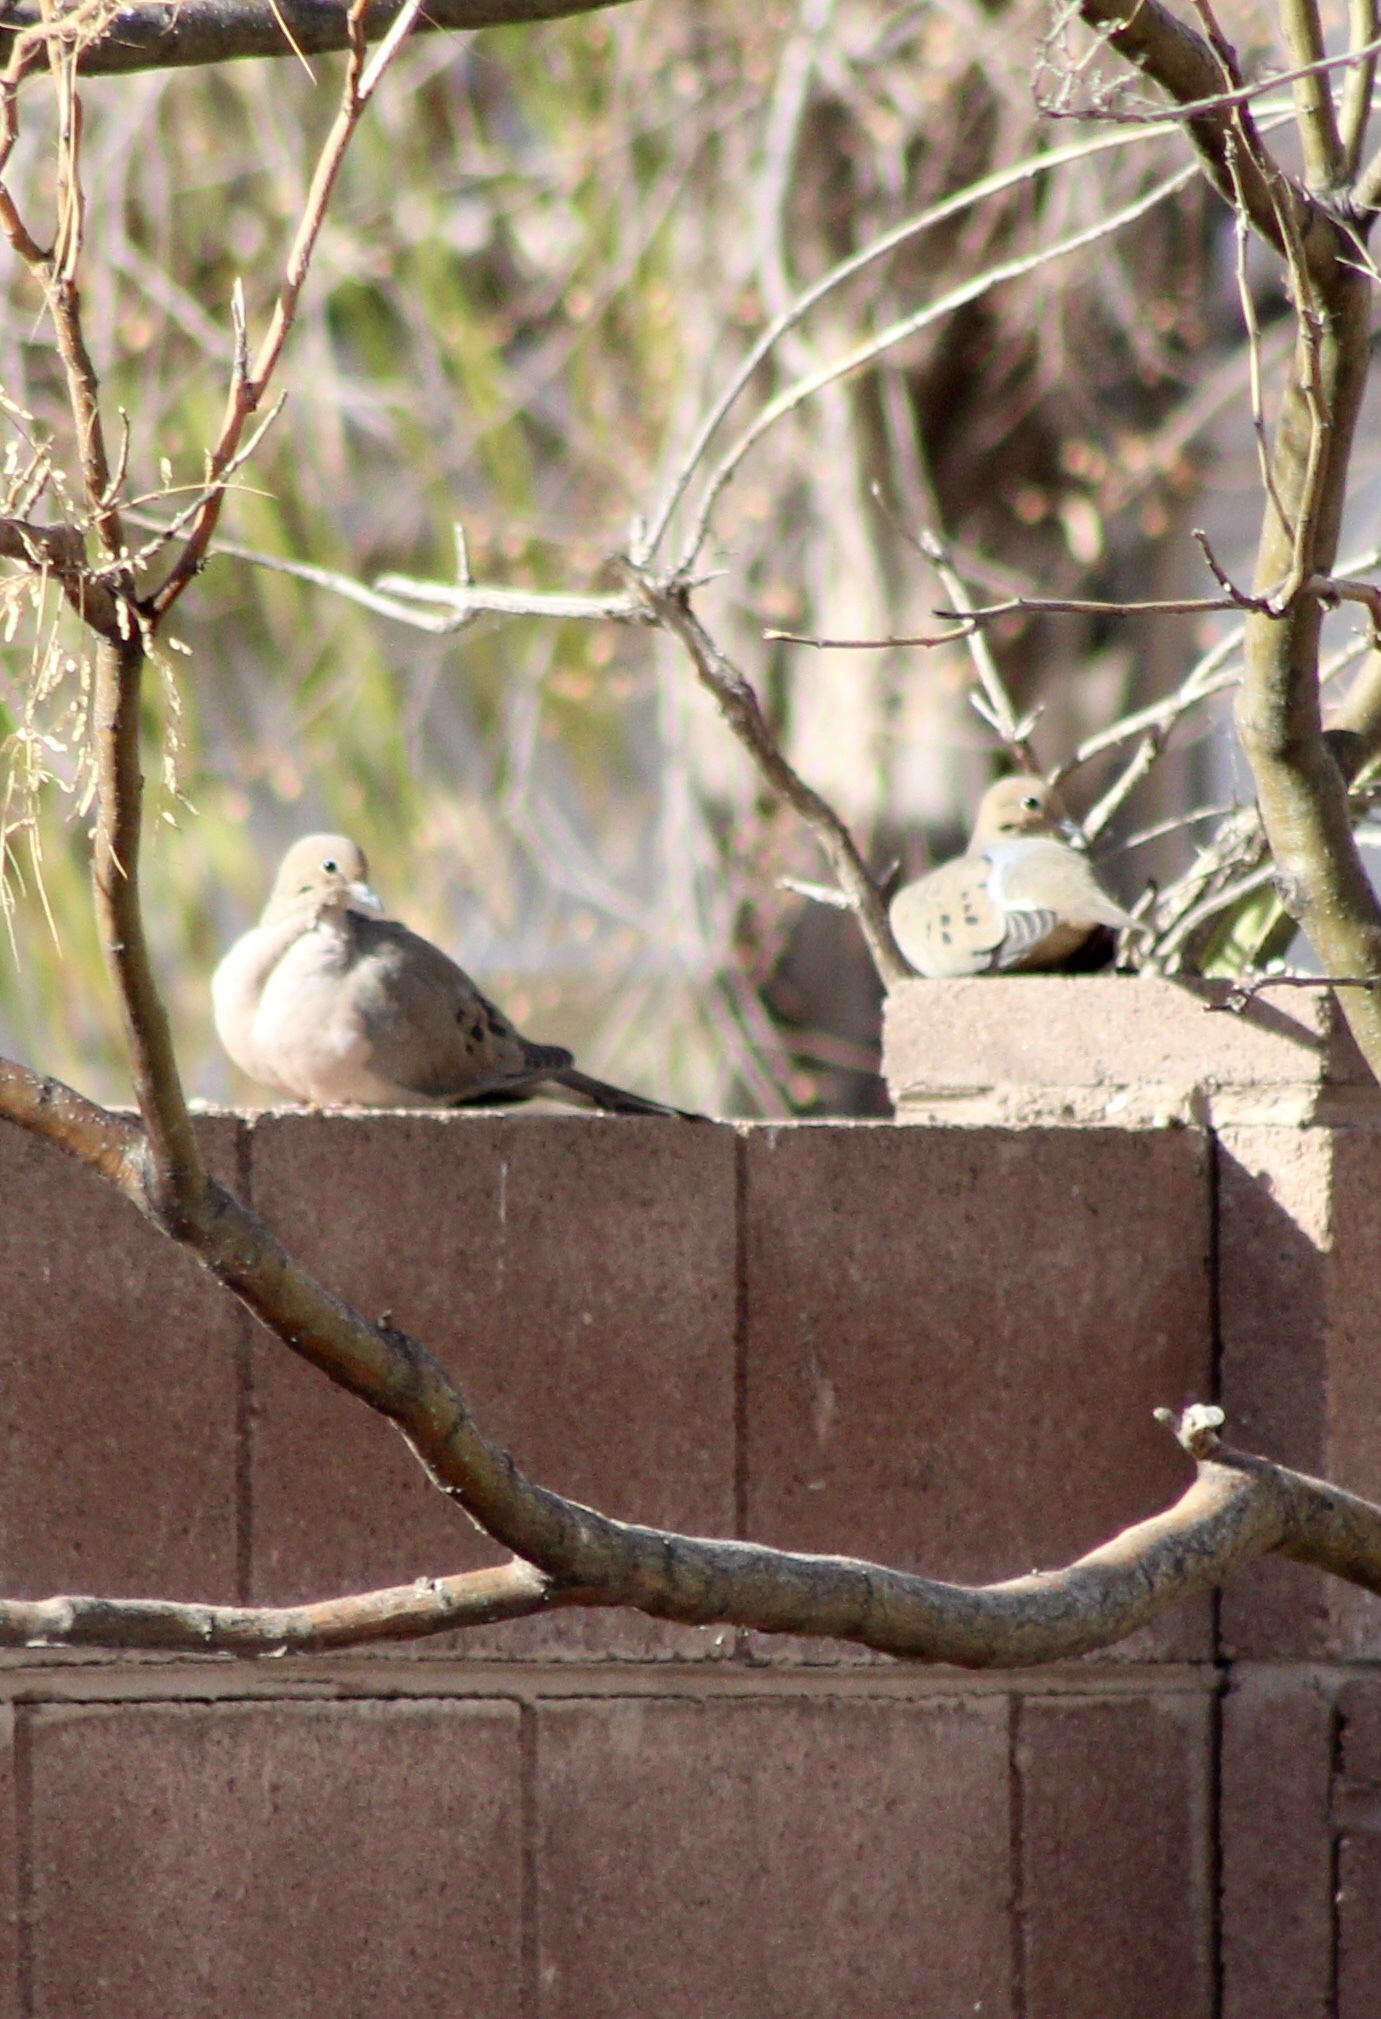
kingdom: Animalia
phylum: Chordata
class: Aves
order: Columbiformes
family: Columbidae
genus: Zenaida
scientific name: Zenaida macroura
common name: Mourning dove
